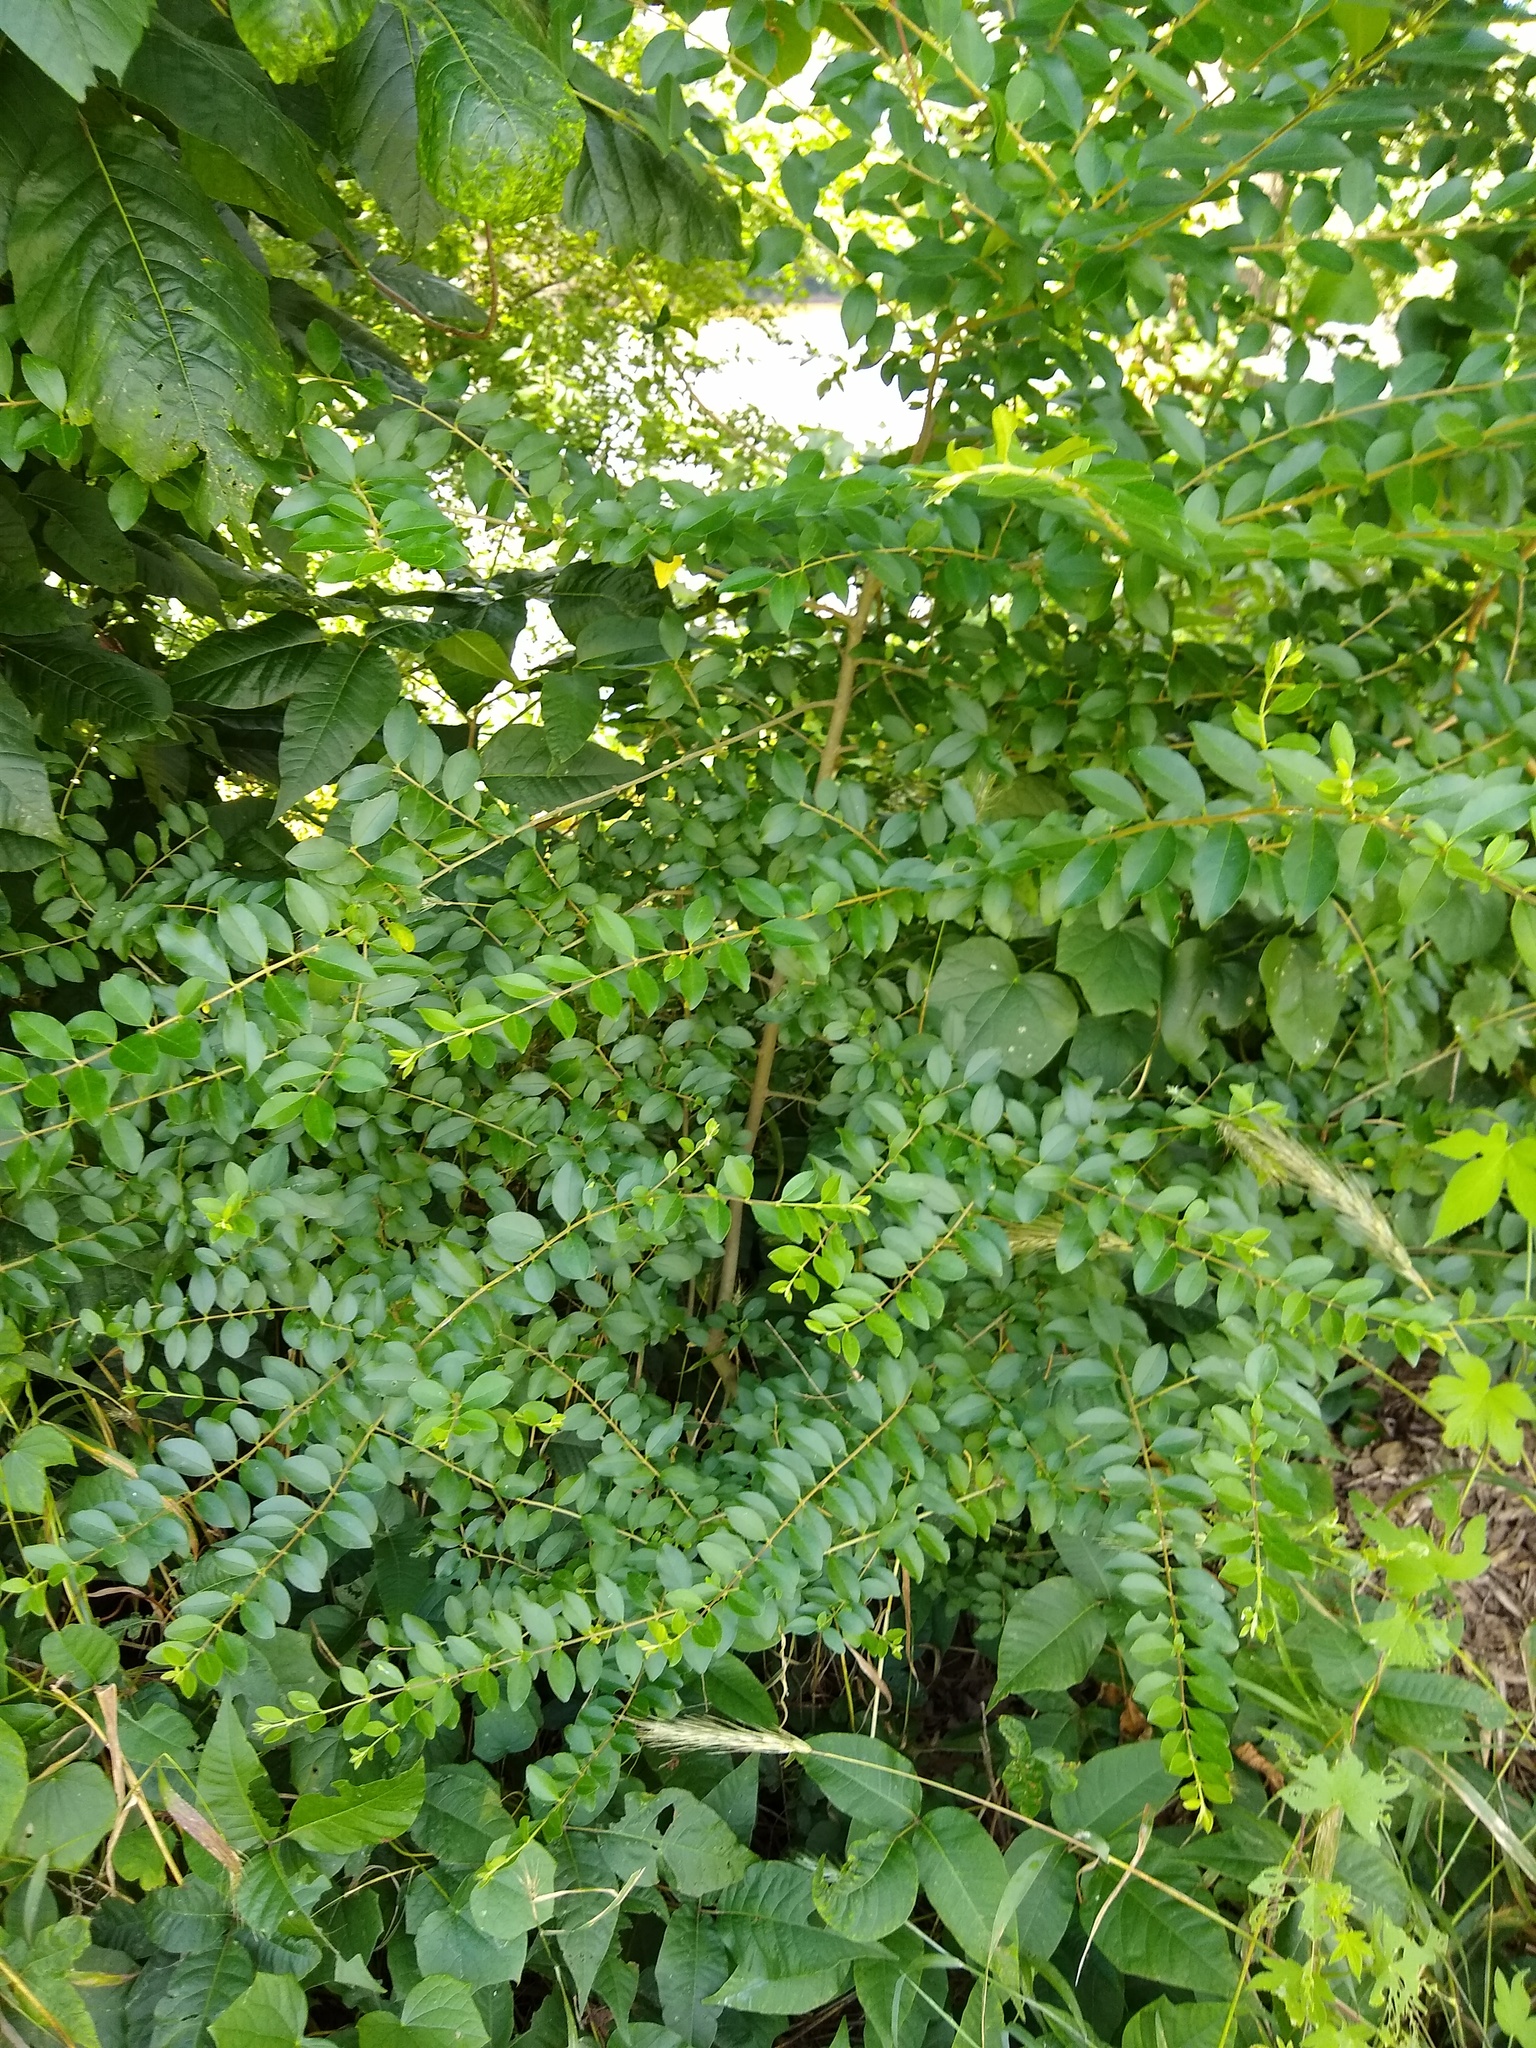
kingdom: Plantae
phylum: Tracheophyta
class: Magnoliopsida
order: Lamiales
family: Oleaceae
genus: Ligustrum
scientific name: Ligustrum sinense
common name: Chinese privet
